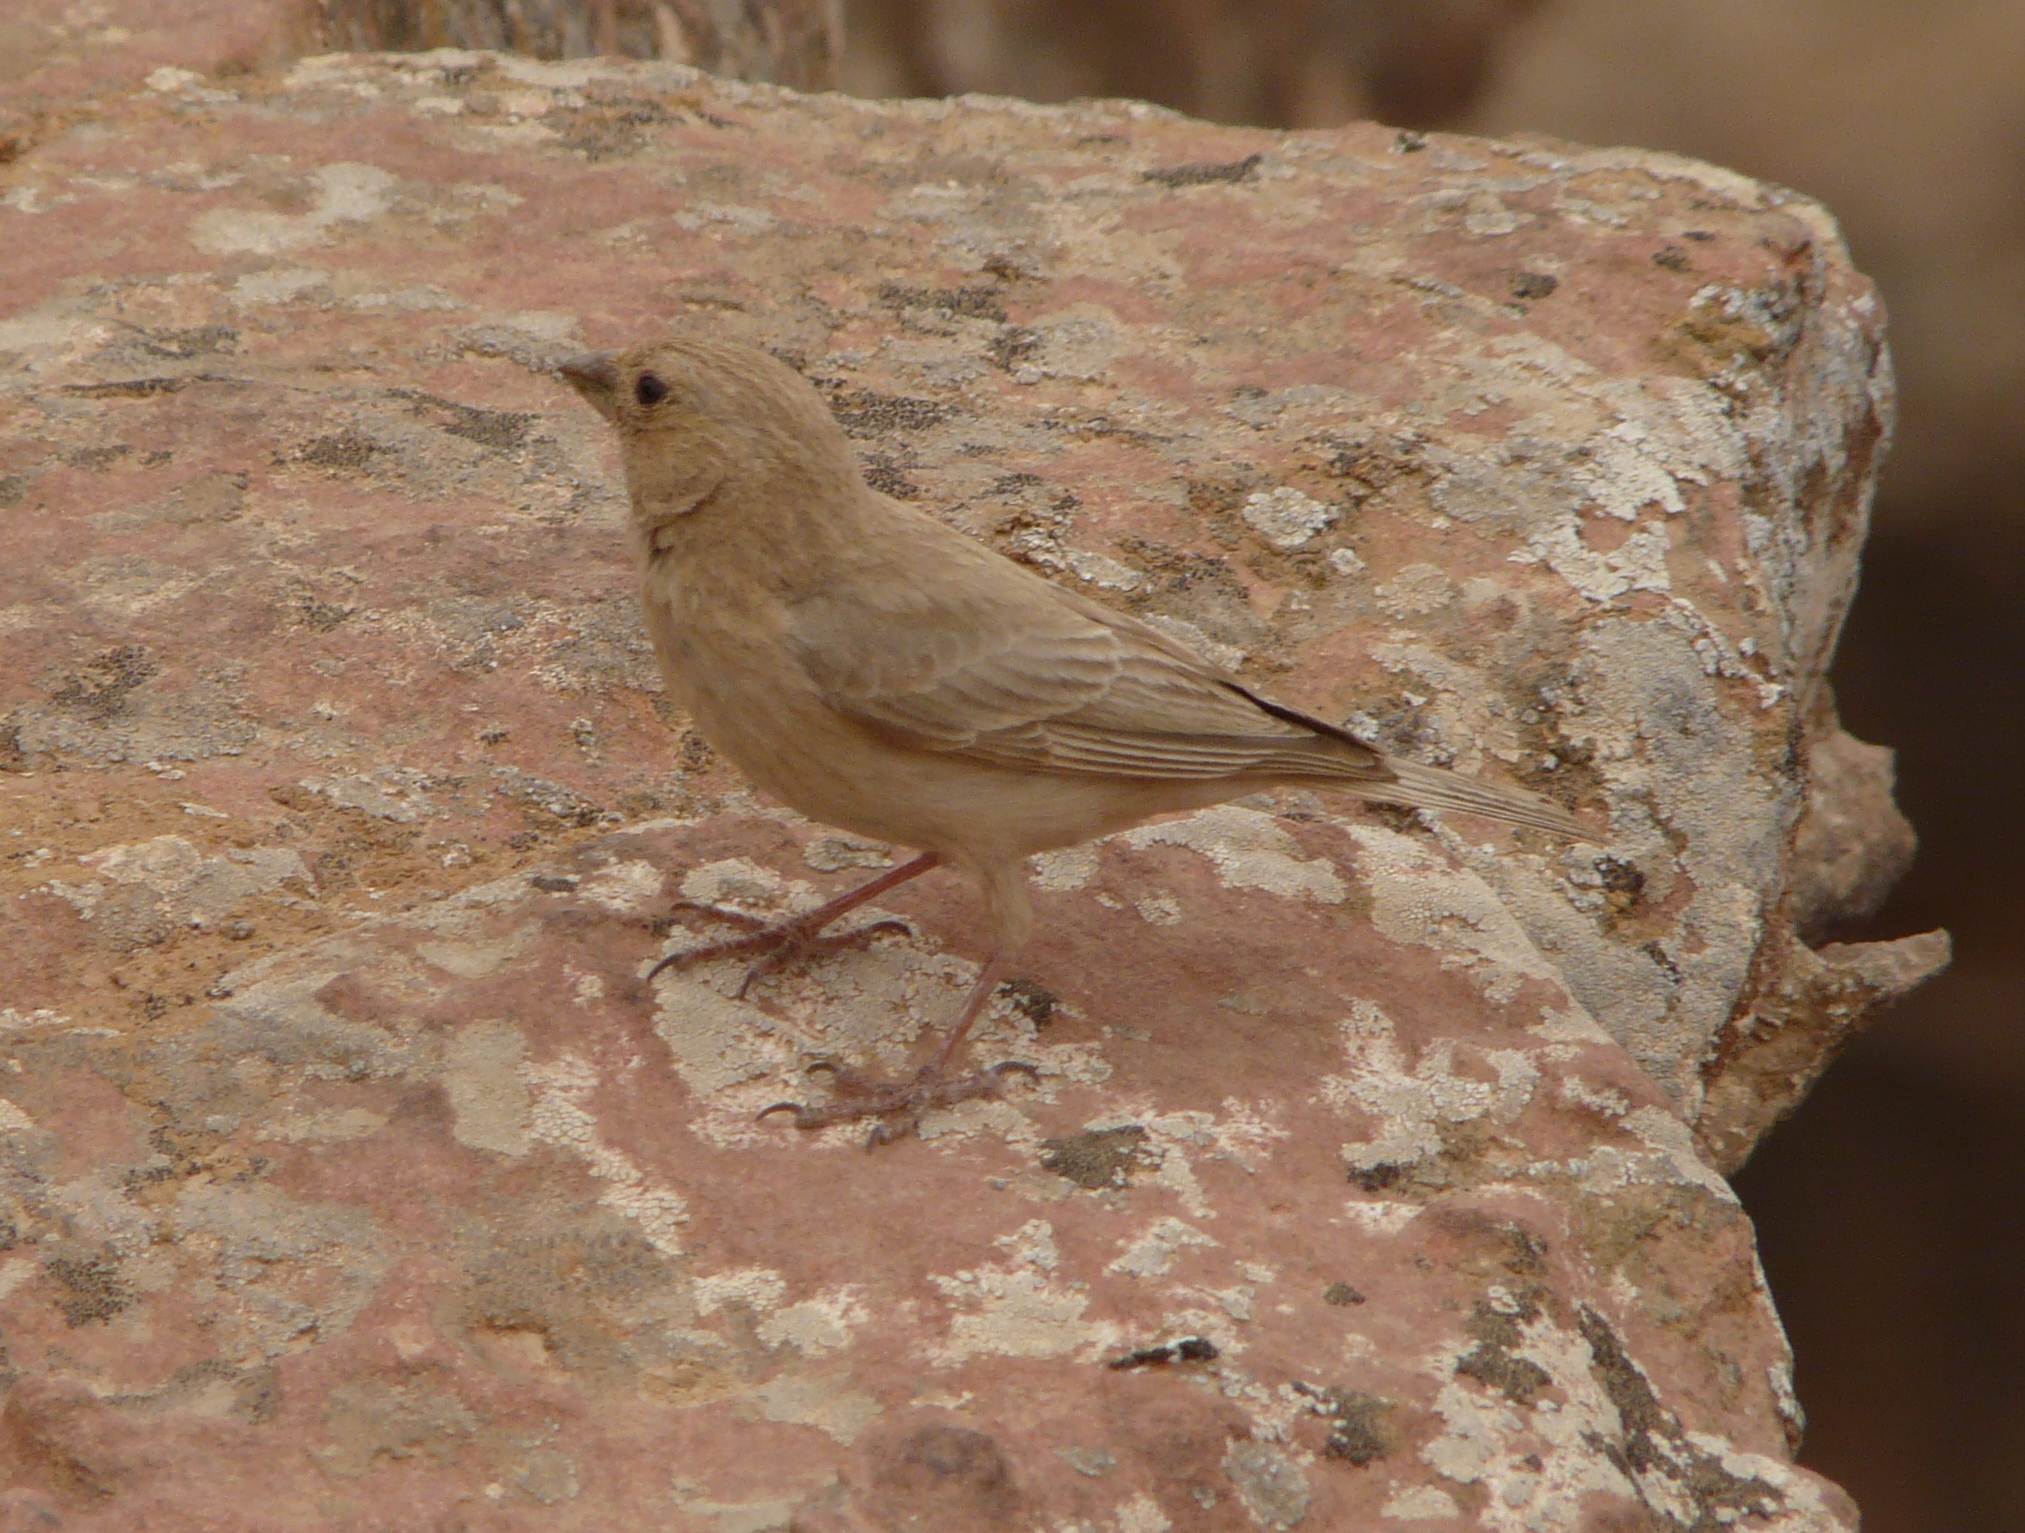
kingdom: Animalia
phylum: Chordata
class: Aves
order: Passeriformes
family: Fringillidae
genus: Carpodacus
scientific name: Carpodacus synoicus
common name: Sinai rosefinch
